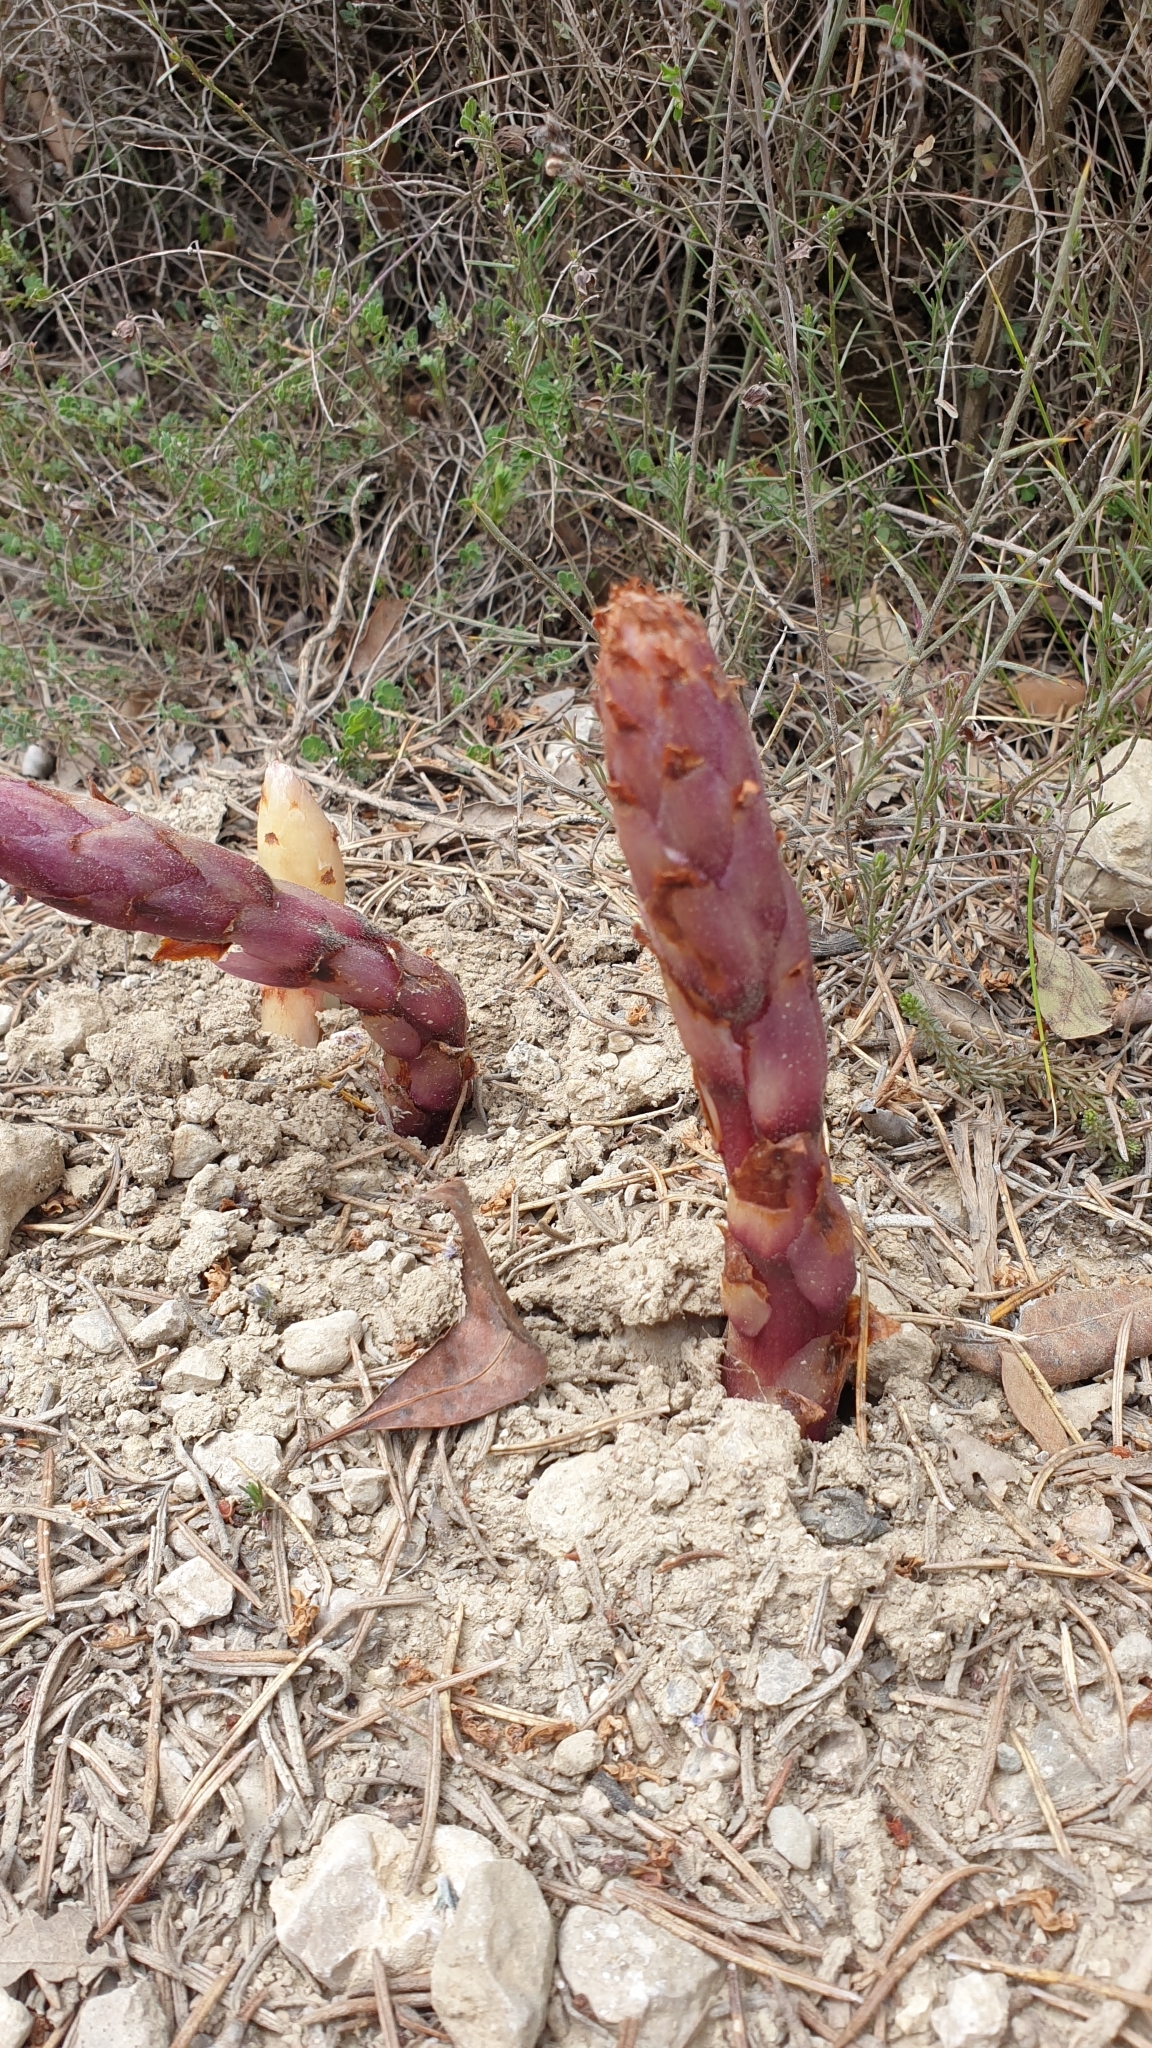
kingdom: Plantae
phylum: Tracheophyta
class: Magnoliopsida
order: Lamiales
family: Orobanchaceae
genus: Boulardia
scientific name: Boulardia latisquama
